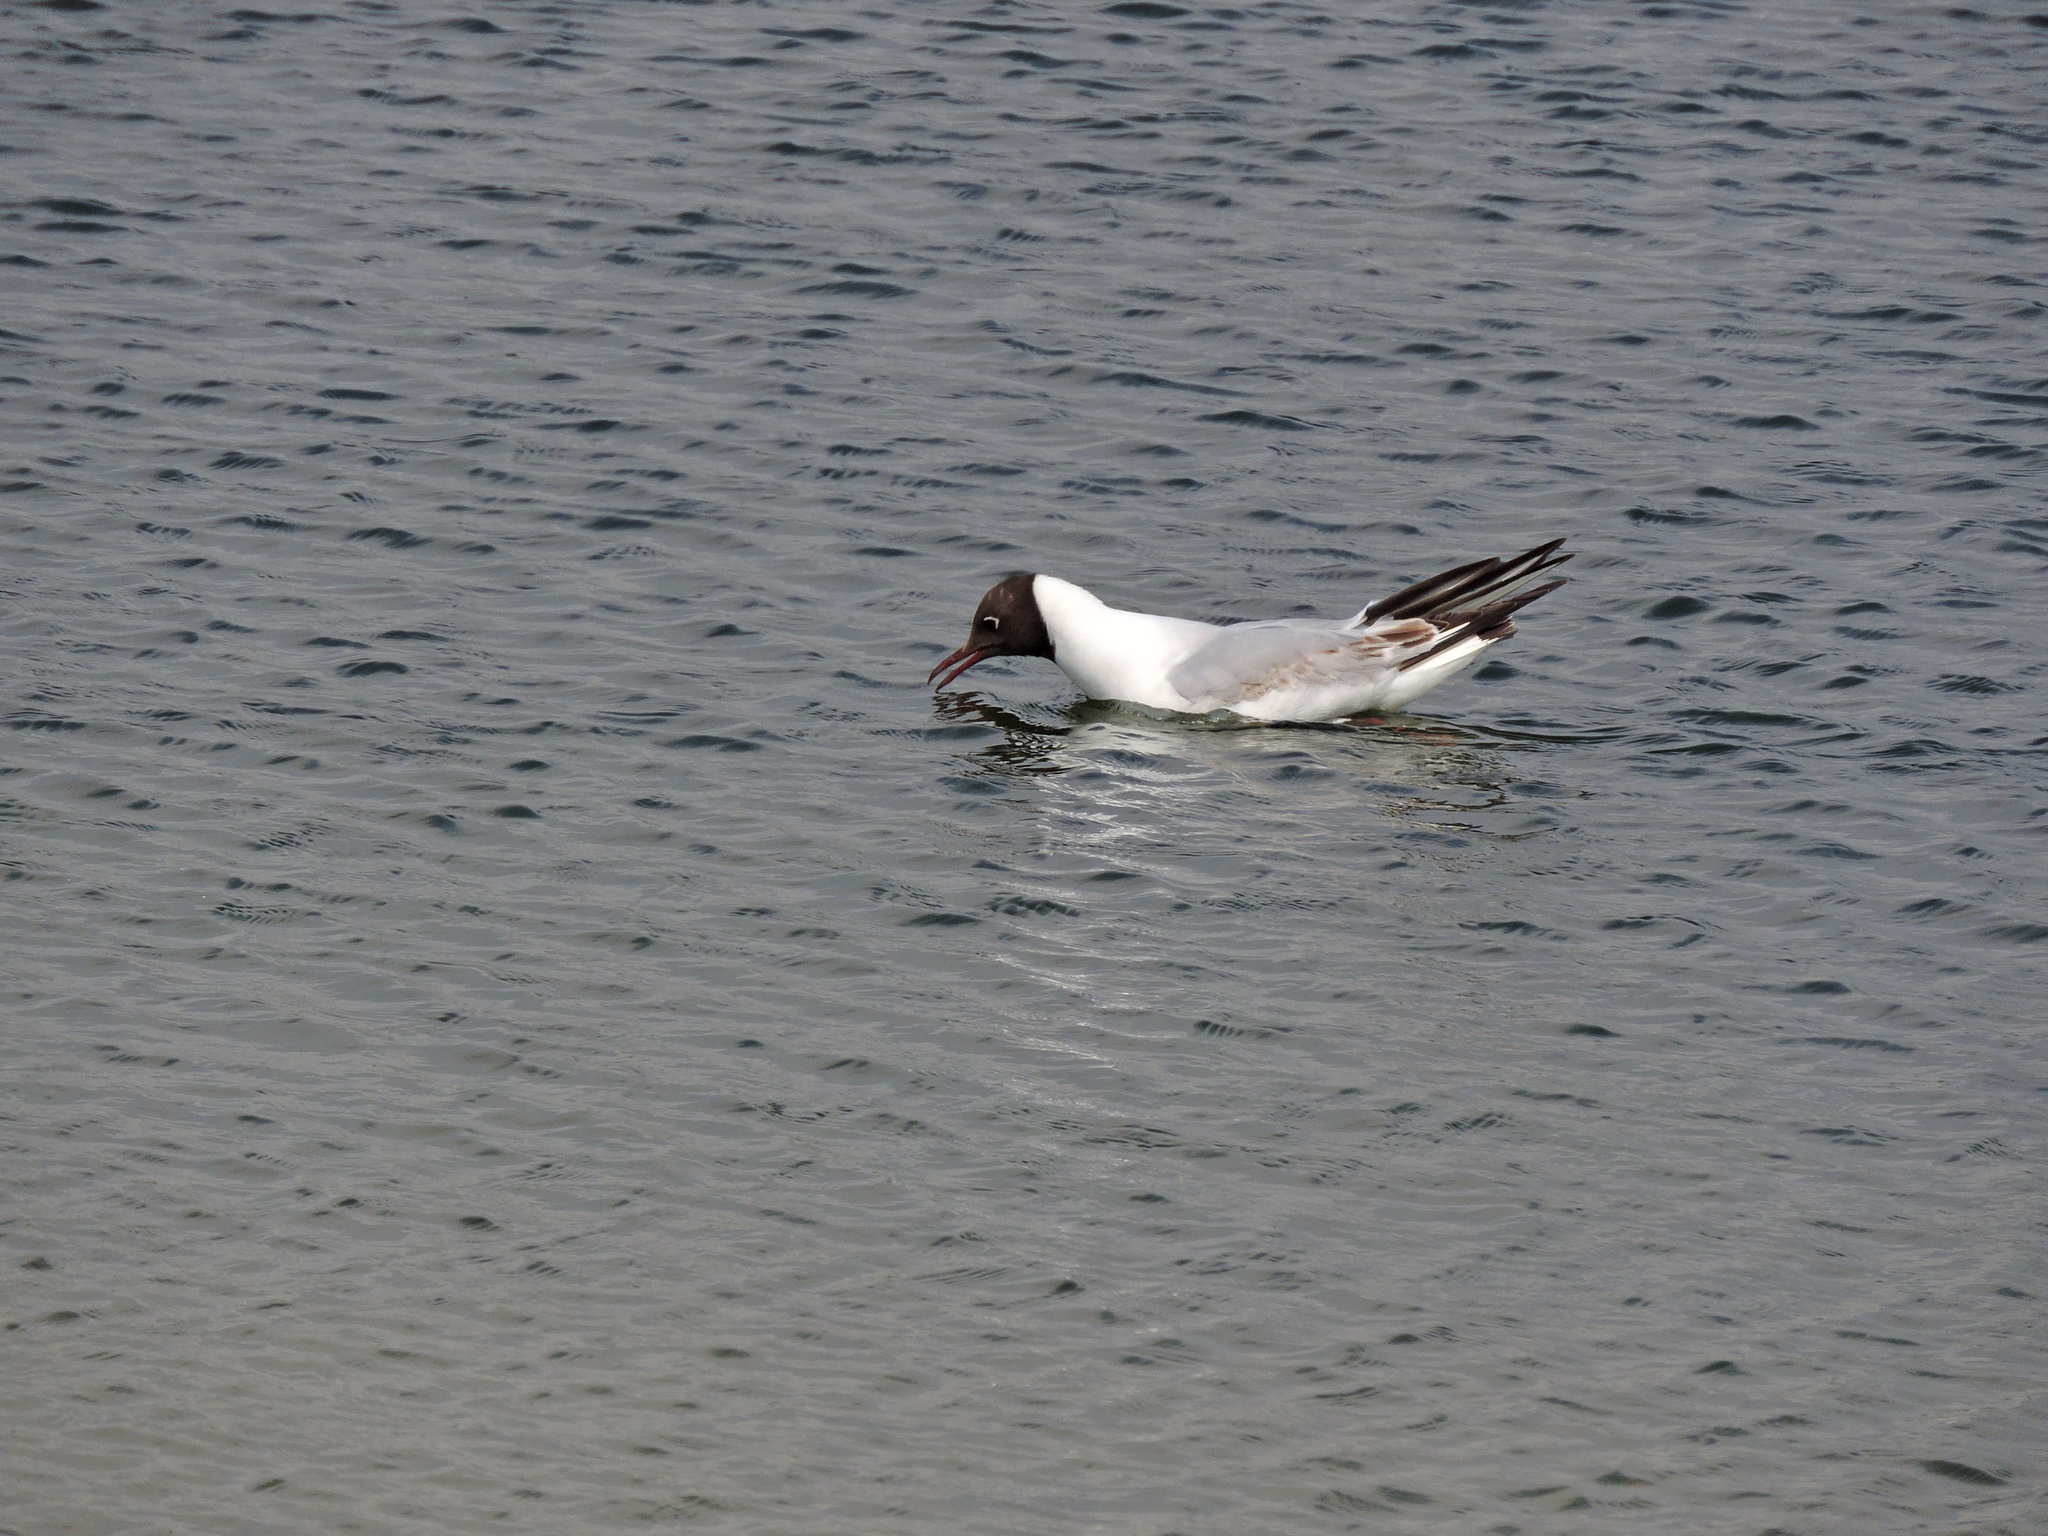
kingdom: Animalia
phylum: Chordata
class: Aves
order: Charadriiformes
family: Laridae
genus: Chroicocephalus
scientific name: Chroicocephalus ridibundus
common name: Black-headed gull
